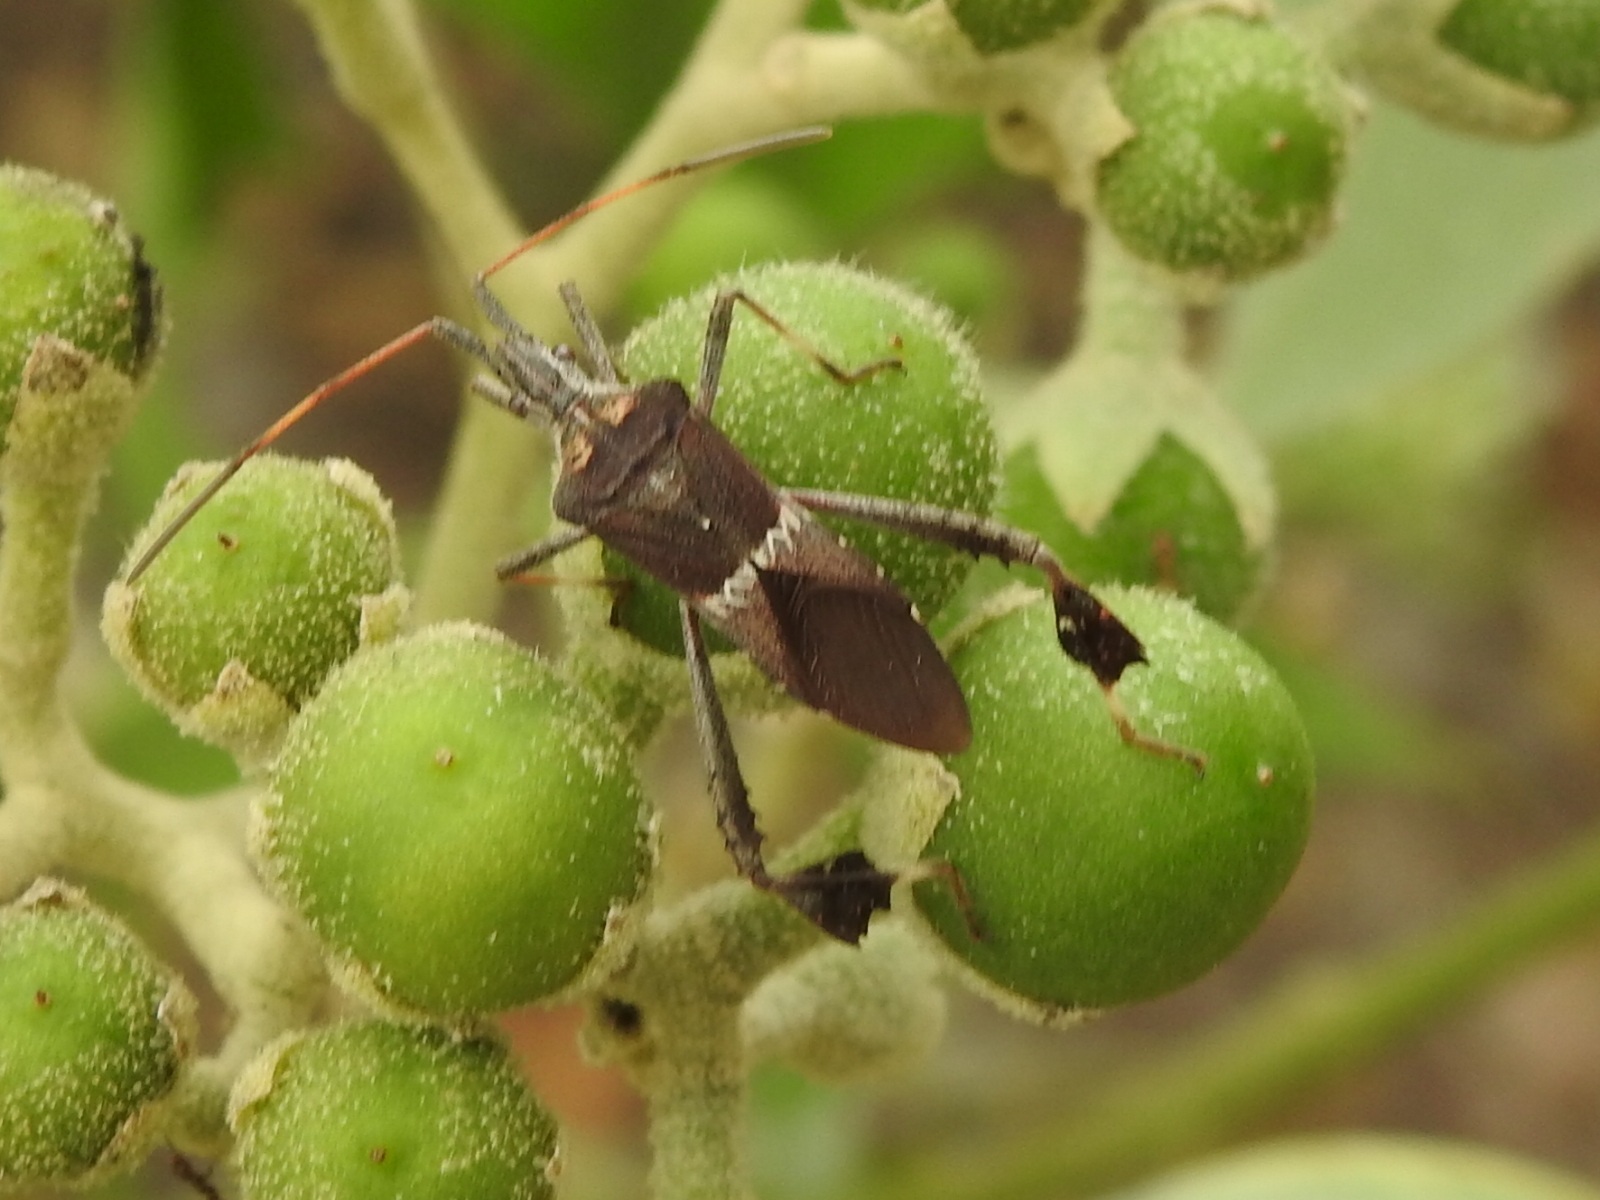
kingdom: Animalia
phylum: Arthropoda
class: Insecta
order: Hemiptera
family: Coreidae
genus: Leptoglossus
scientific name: Leptoglossus zonatus
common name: Large-legged bug
